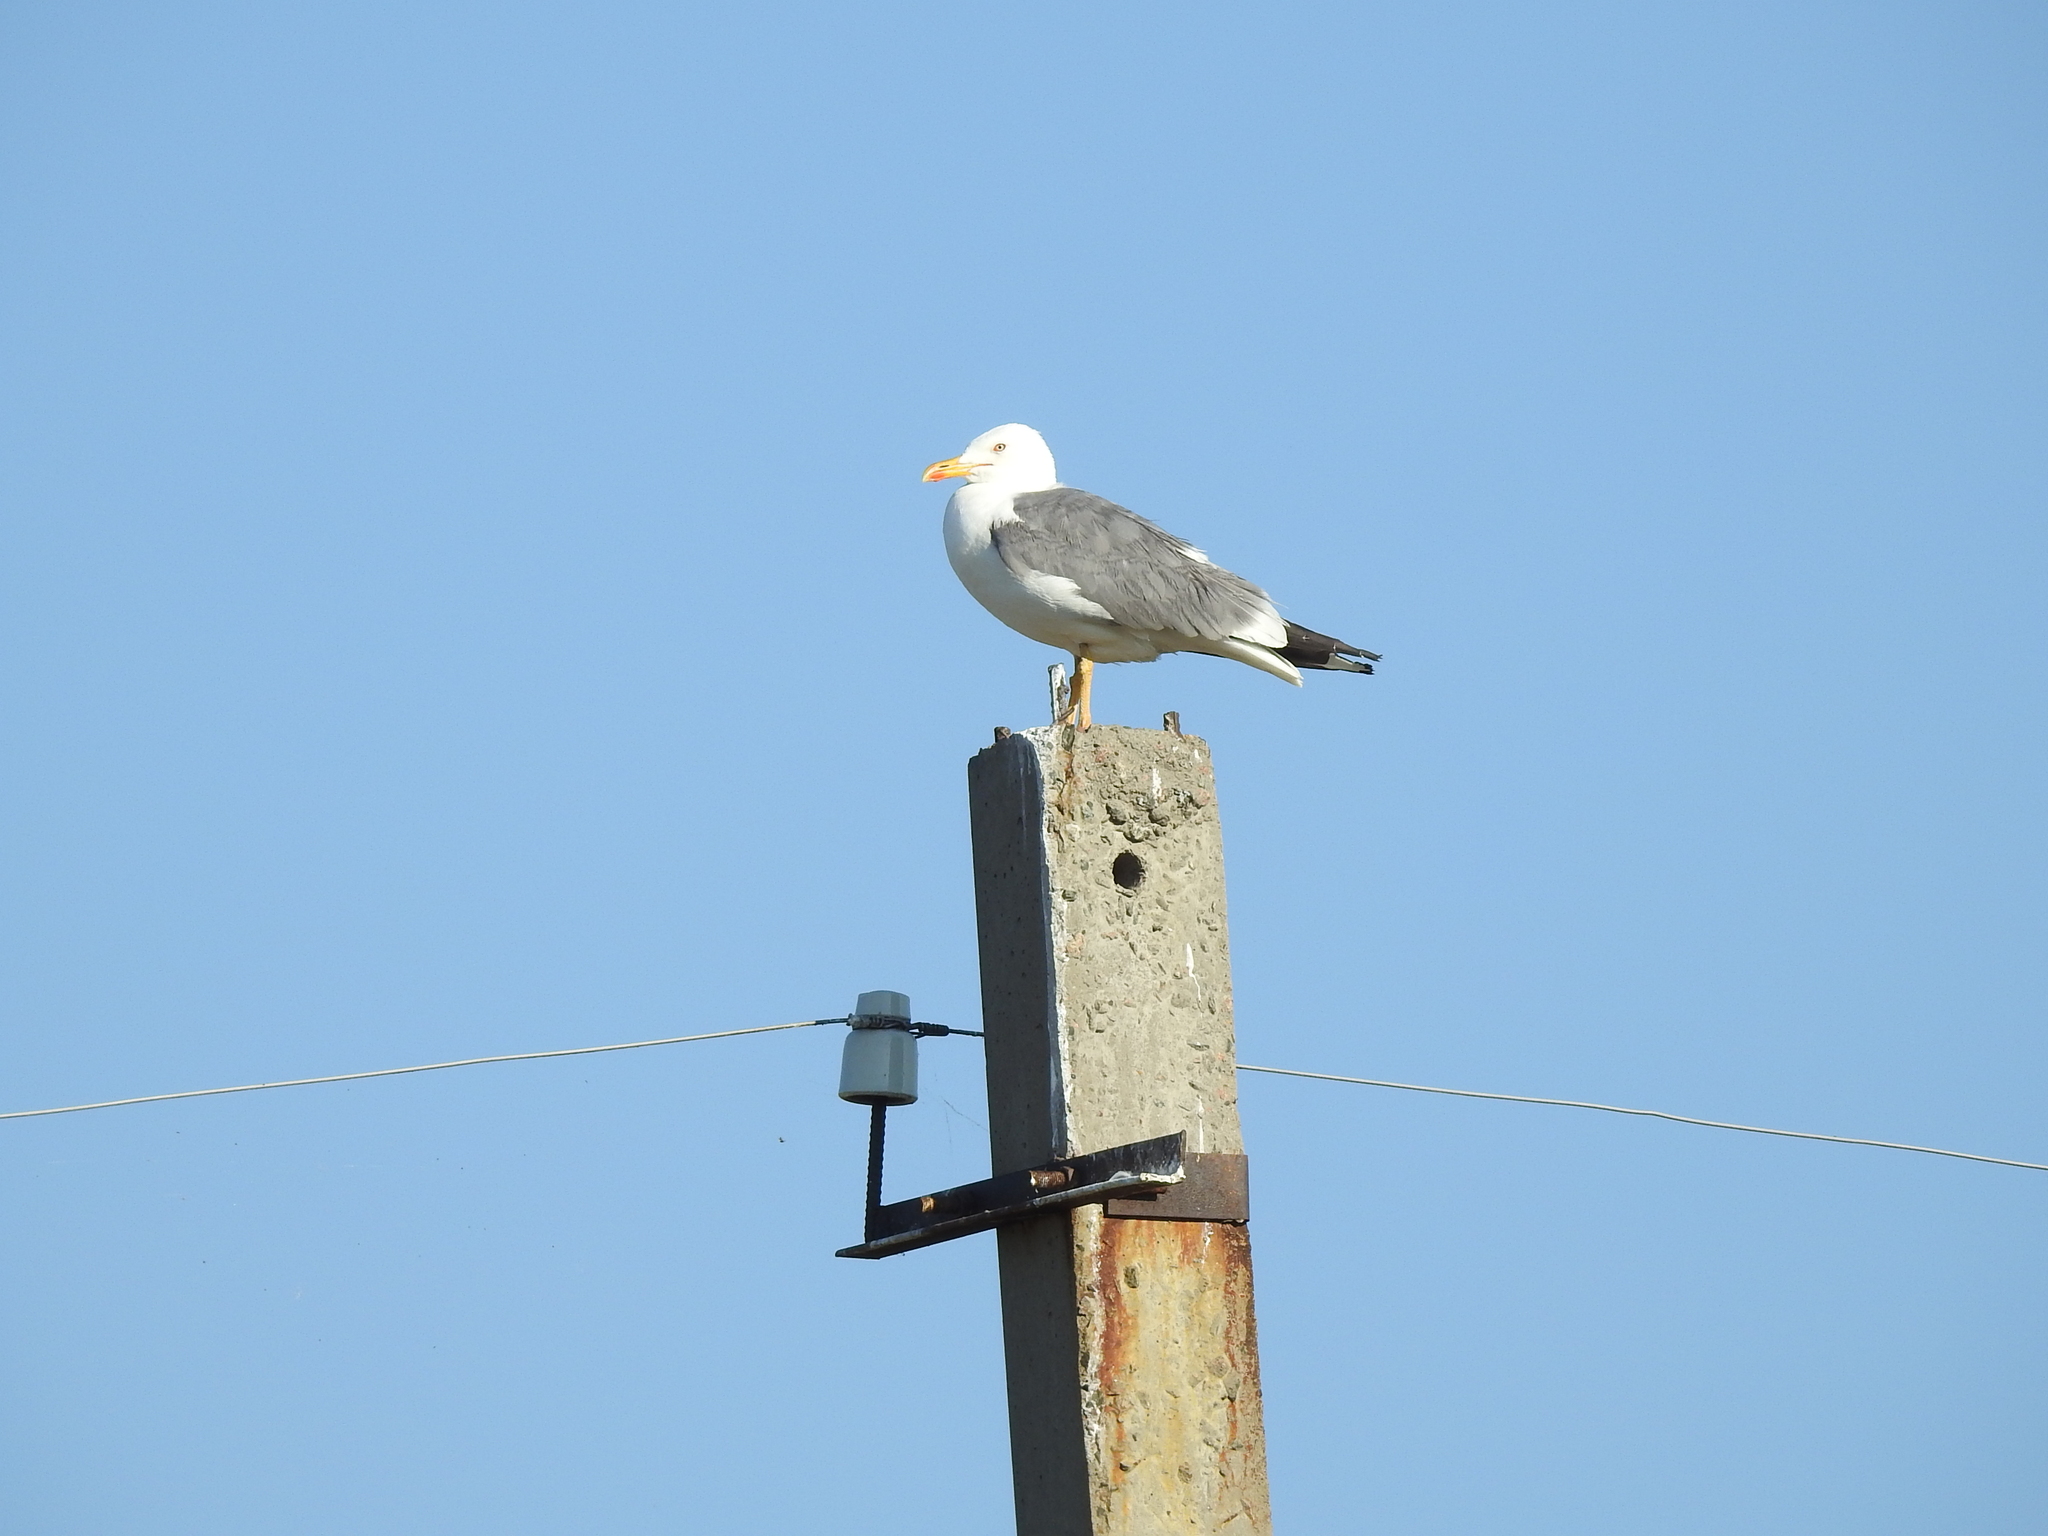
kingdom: Animalia
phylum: Chordata
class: Aves
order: Charadriiformes
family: Laridae
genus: Larus
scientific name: Larus fuscus
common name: Lesser black-backed gull
